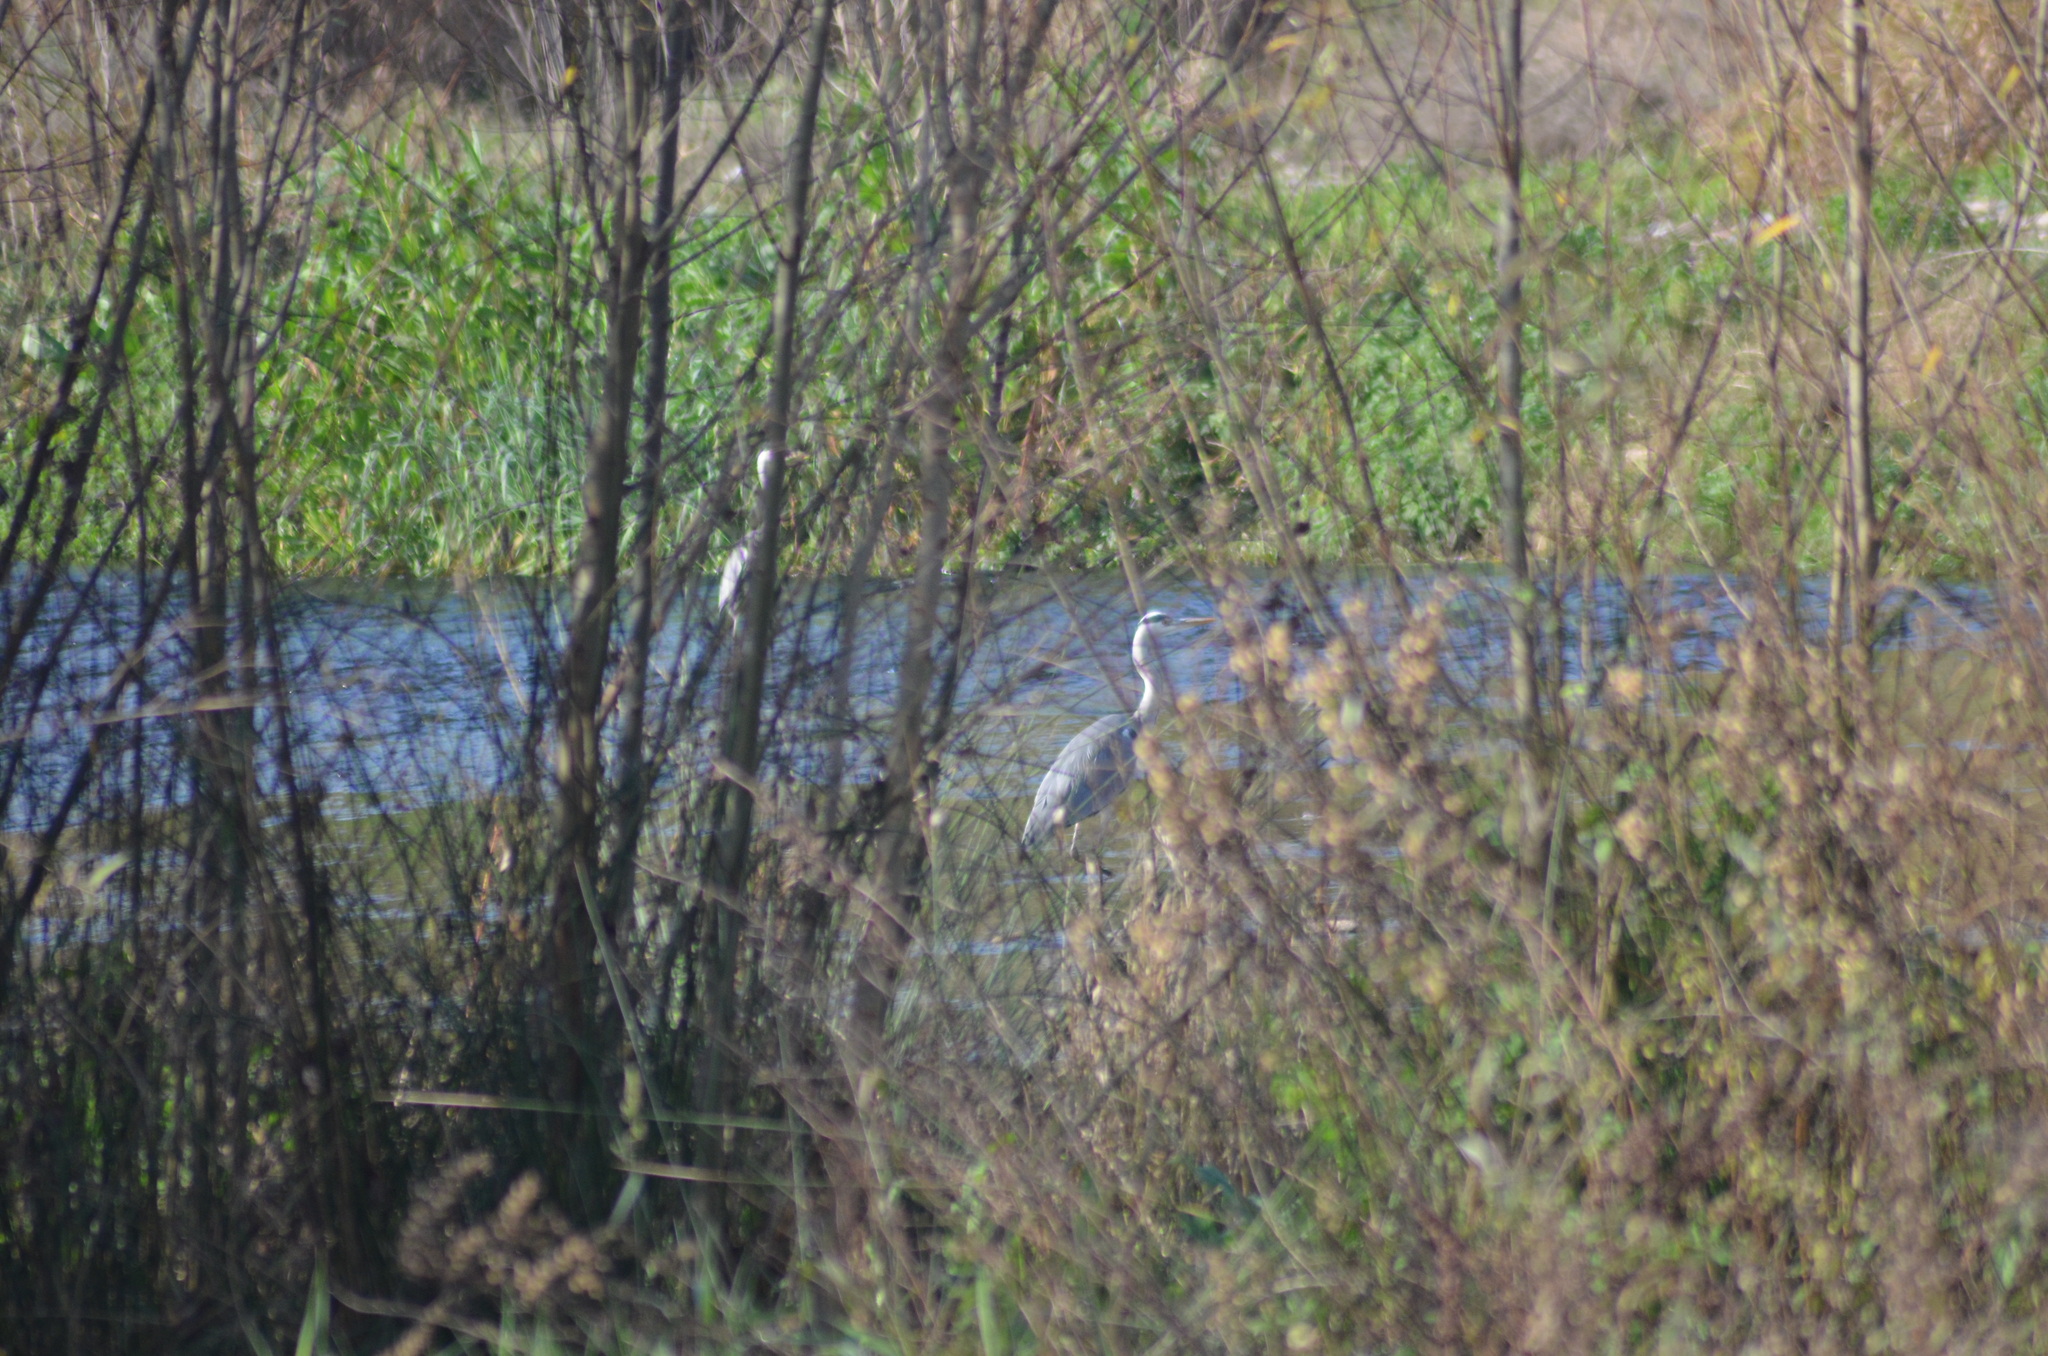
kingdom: Animalia
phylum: Chordata
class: Aves
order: Pelecaniformes
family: Ardeidae
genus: Ardea
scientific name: Ardea cinerea
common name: Grey heron
